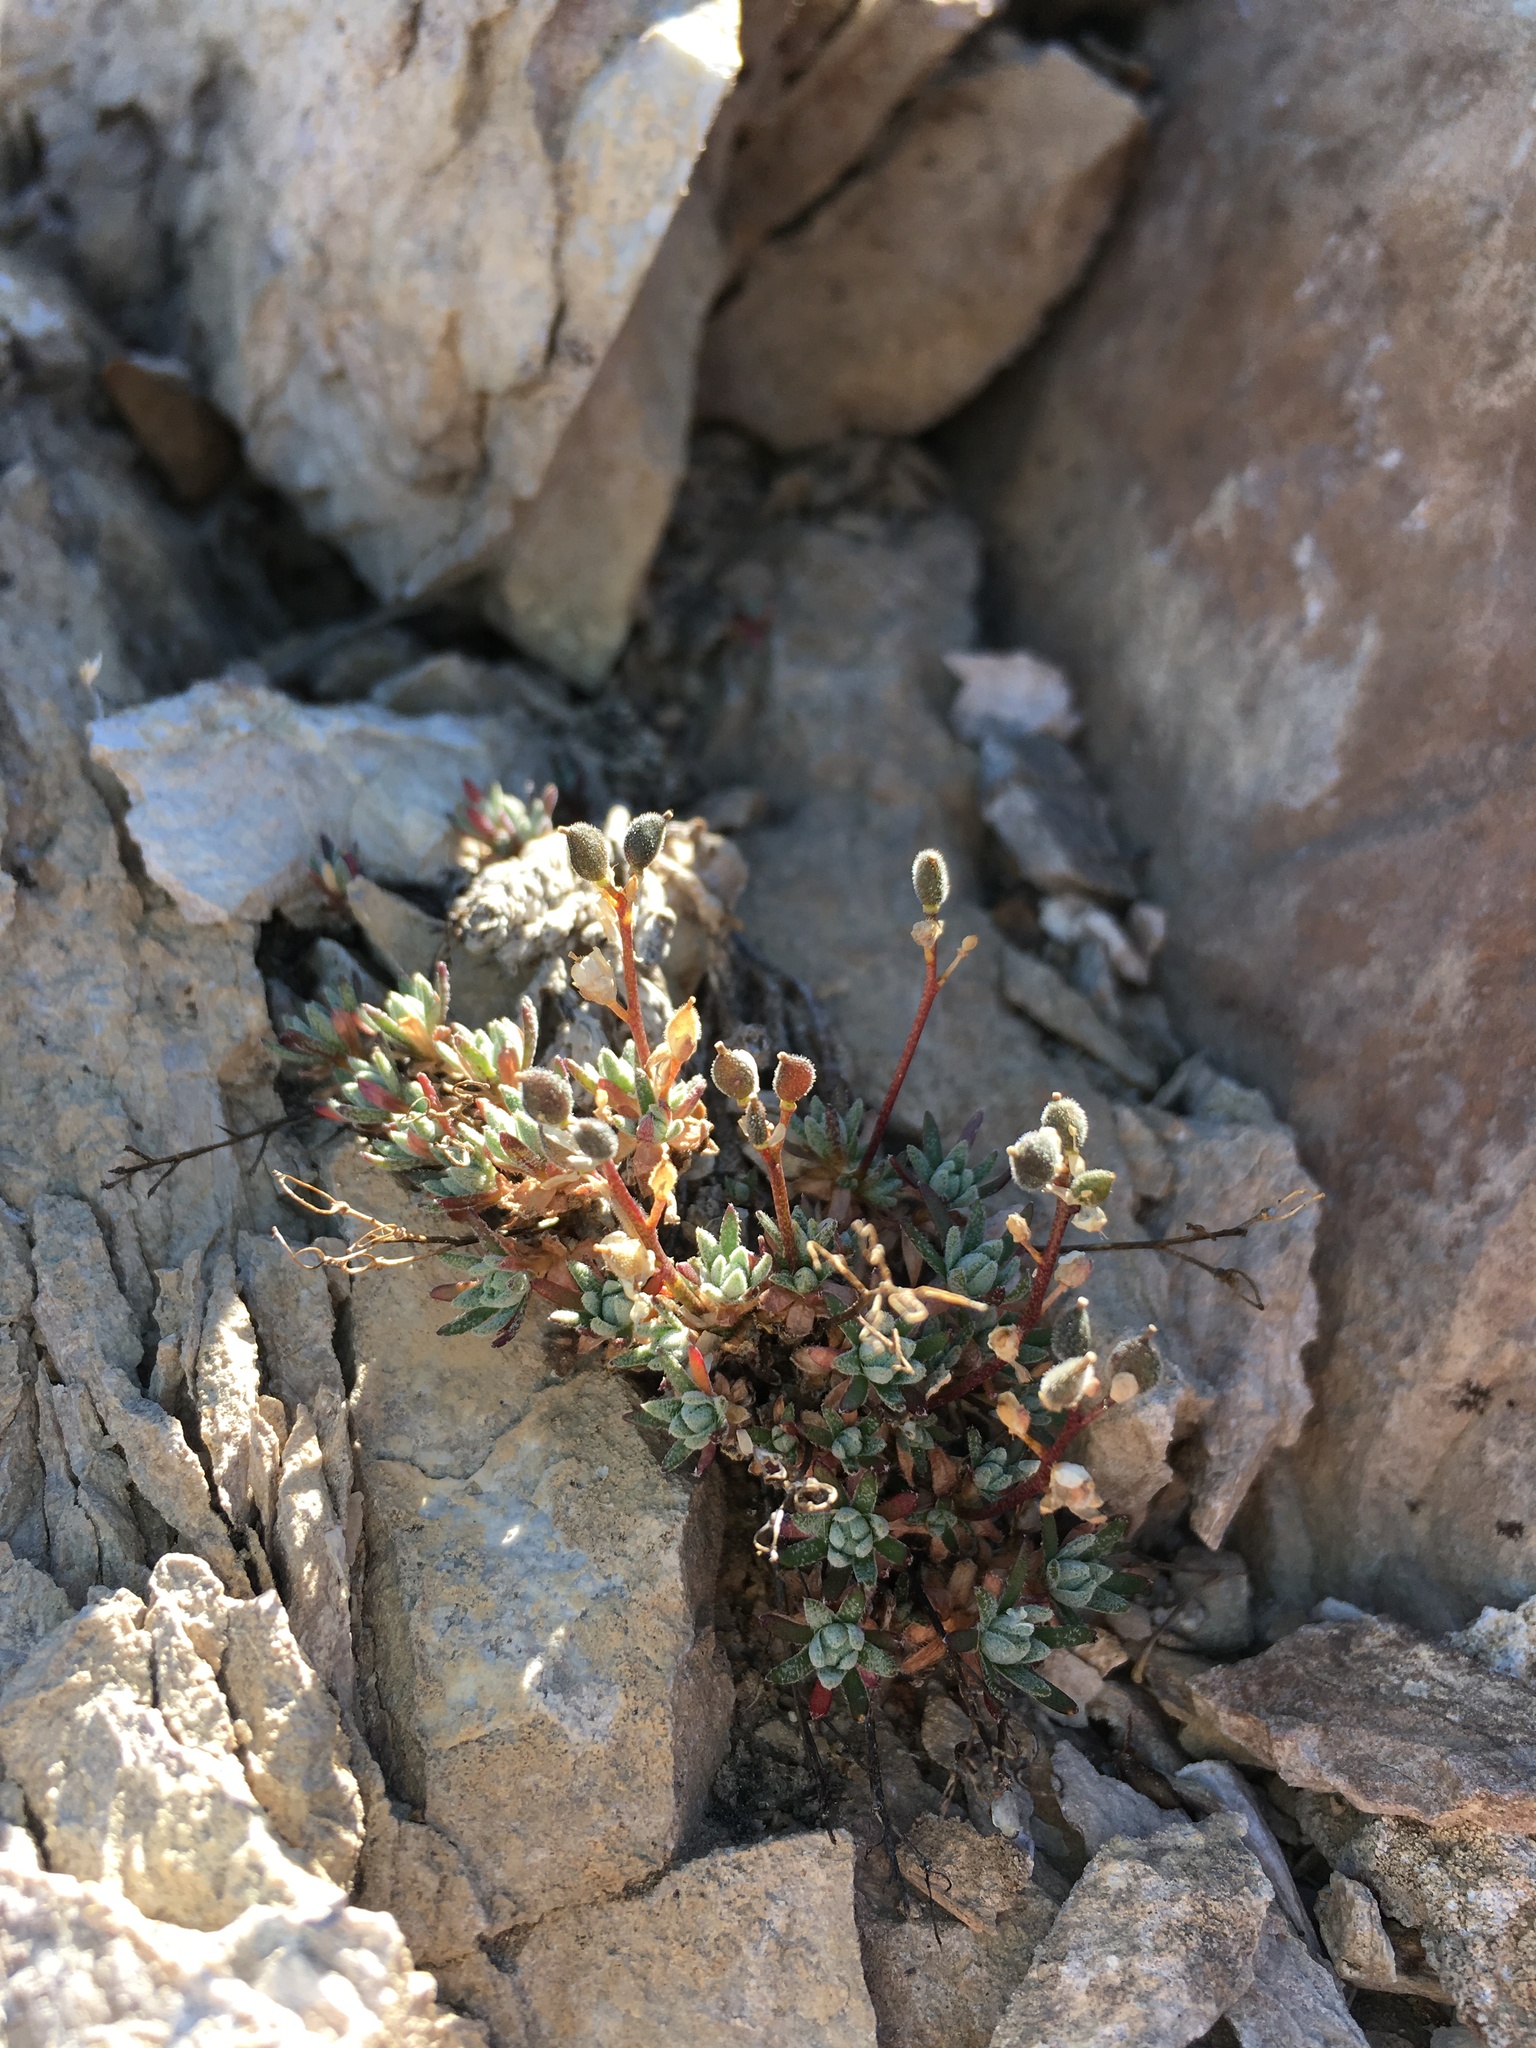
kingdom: Plantae
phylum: Tracheophyta
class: Magnoliopsida
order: Brassicales
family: Brassicaceae
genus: Draba
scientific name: Draba oligosperma
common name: Few-seed draba
